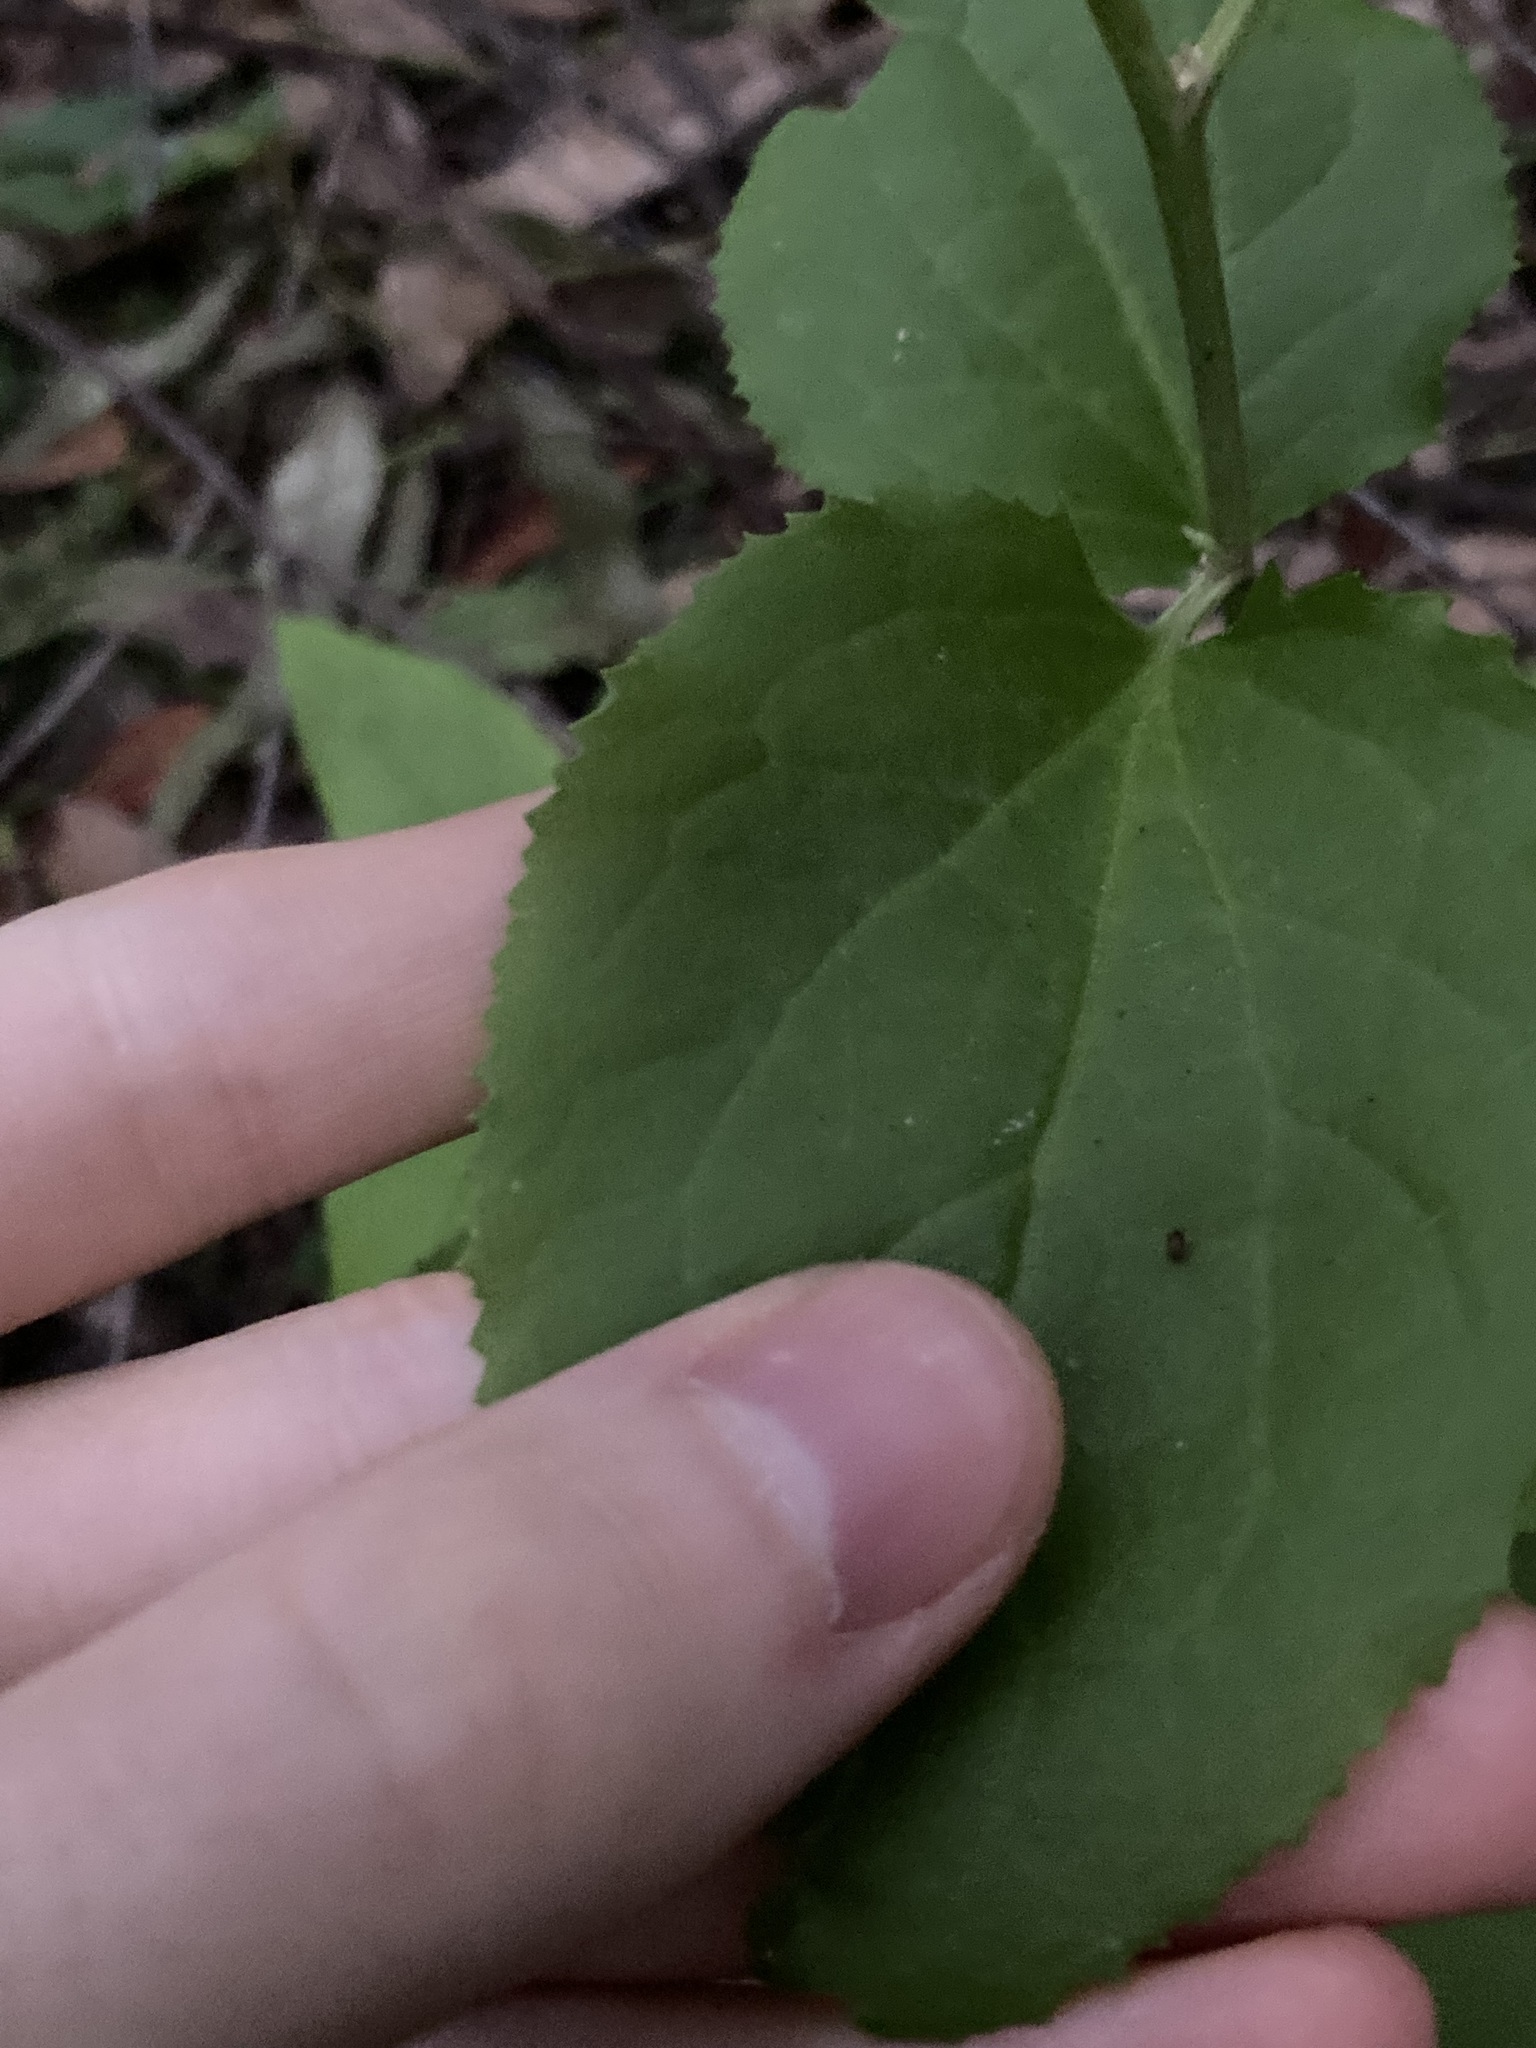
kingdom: Plantae
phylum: Tracheophyta
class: Magnoliopsida
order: Asterales
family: Goodeniaceae
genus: Goodenia
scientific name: Goodenia ovata
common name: Hop goodenia
